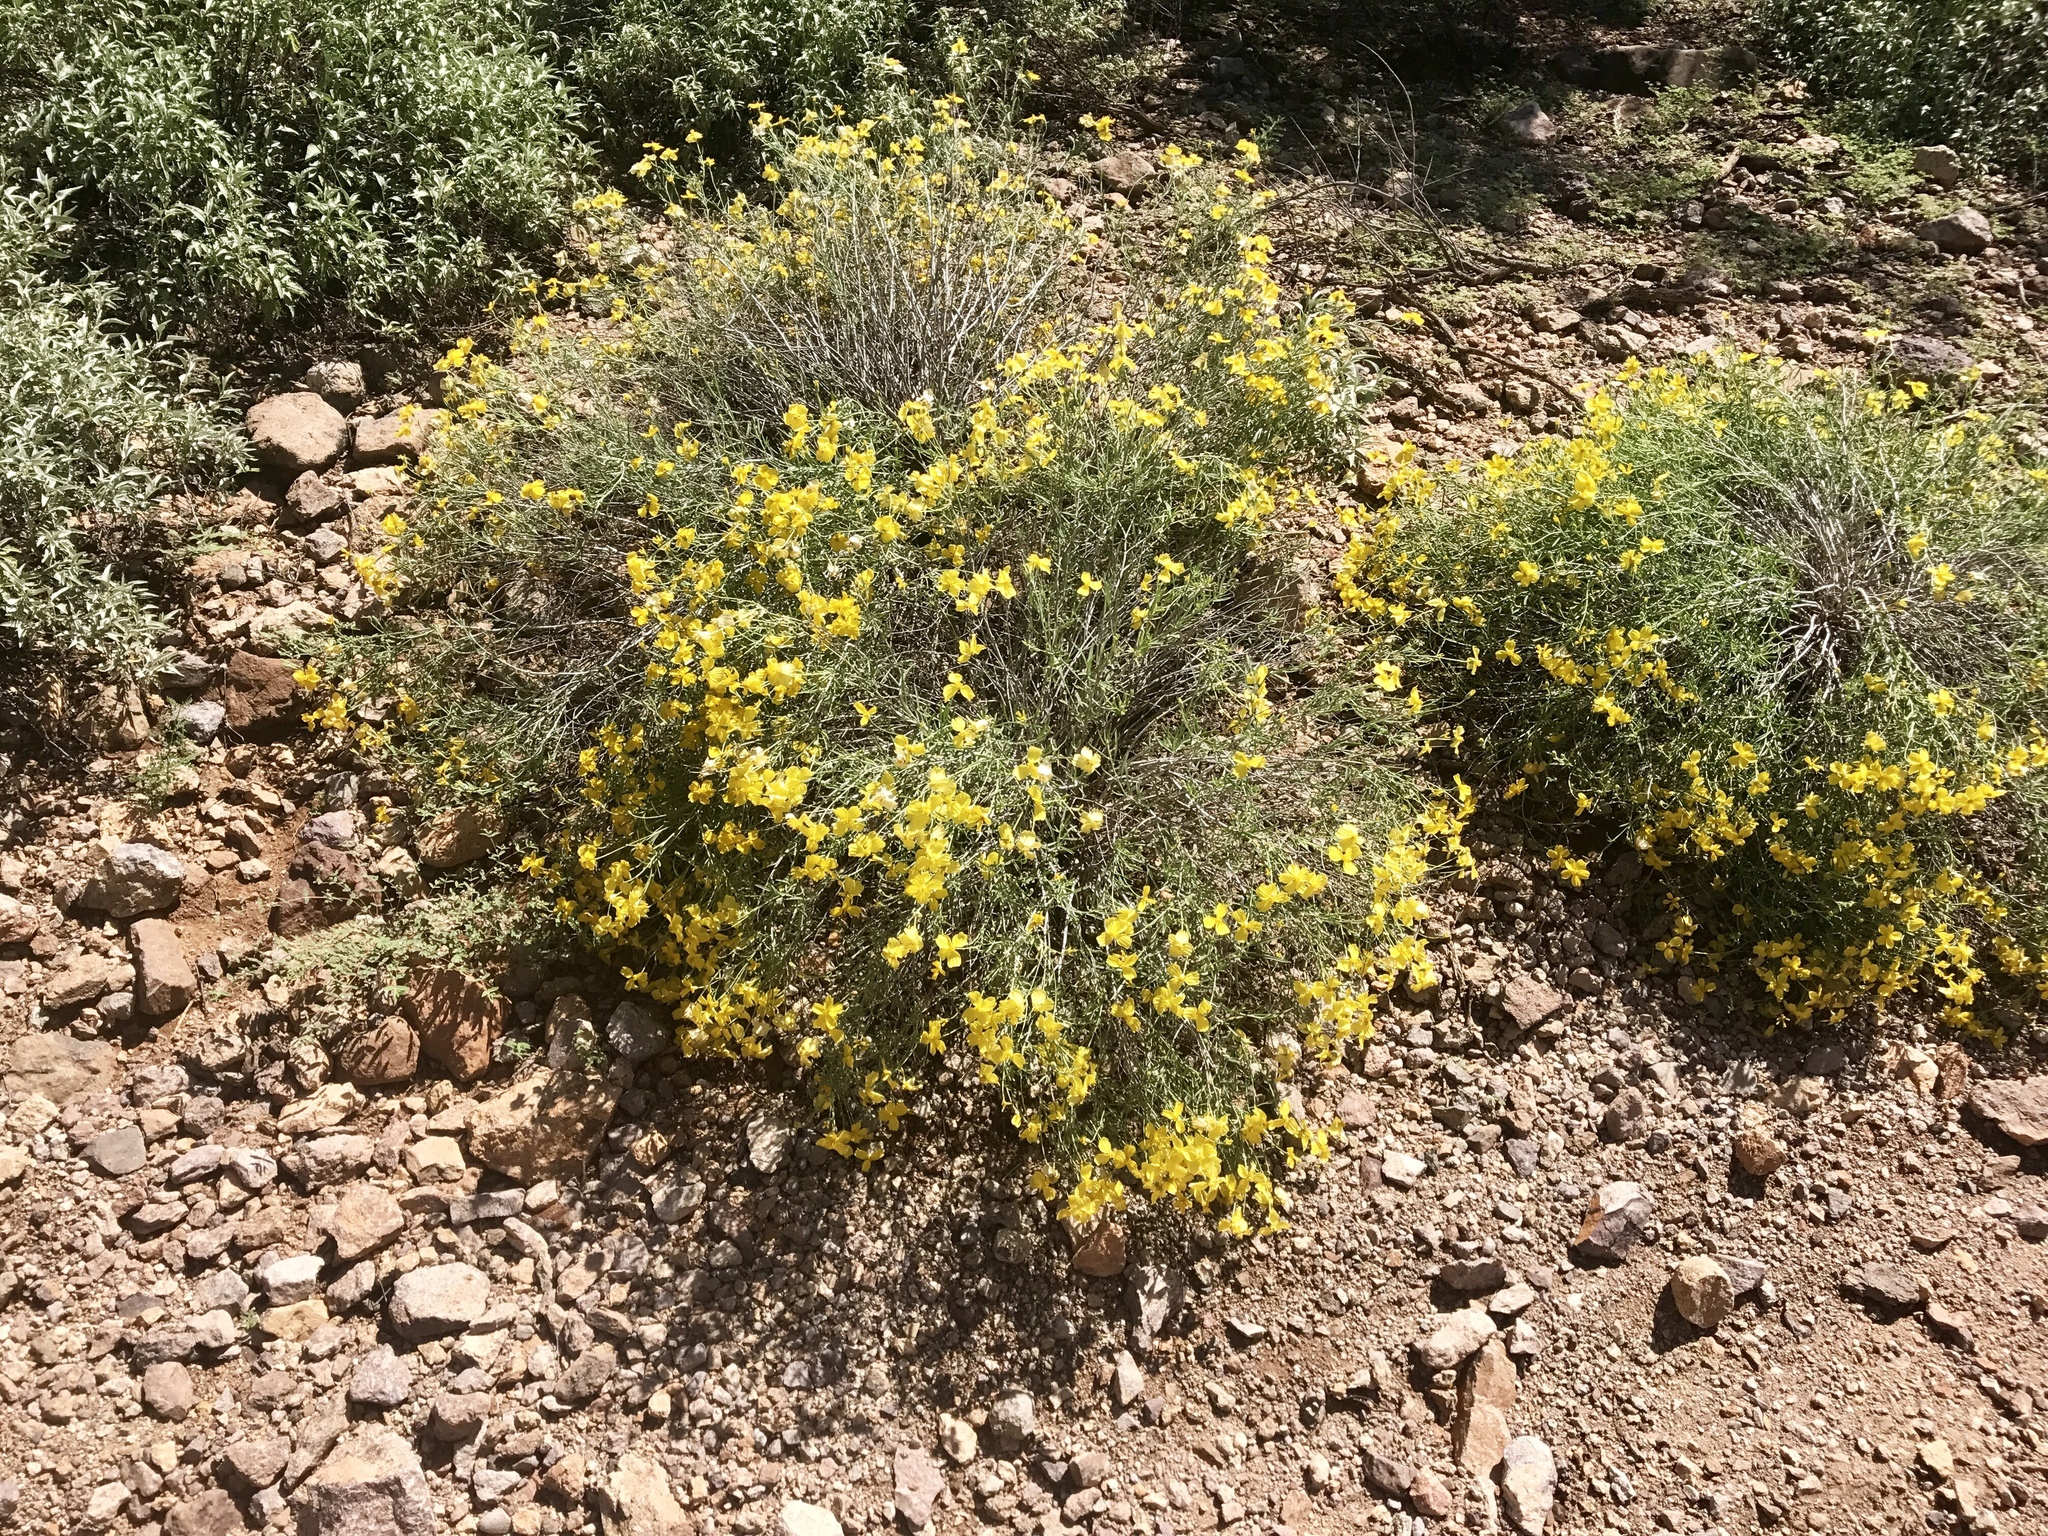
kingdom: Plantae
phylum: Tracheophyta
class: Magnoliopsida
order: Asterales
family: Asteraceae
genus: Psilostrophe
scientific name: Psilostrophe cooperi
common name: White-stem paper-flower
